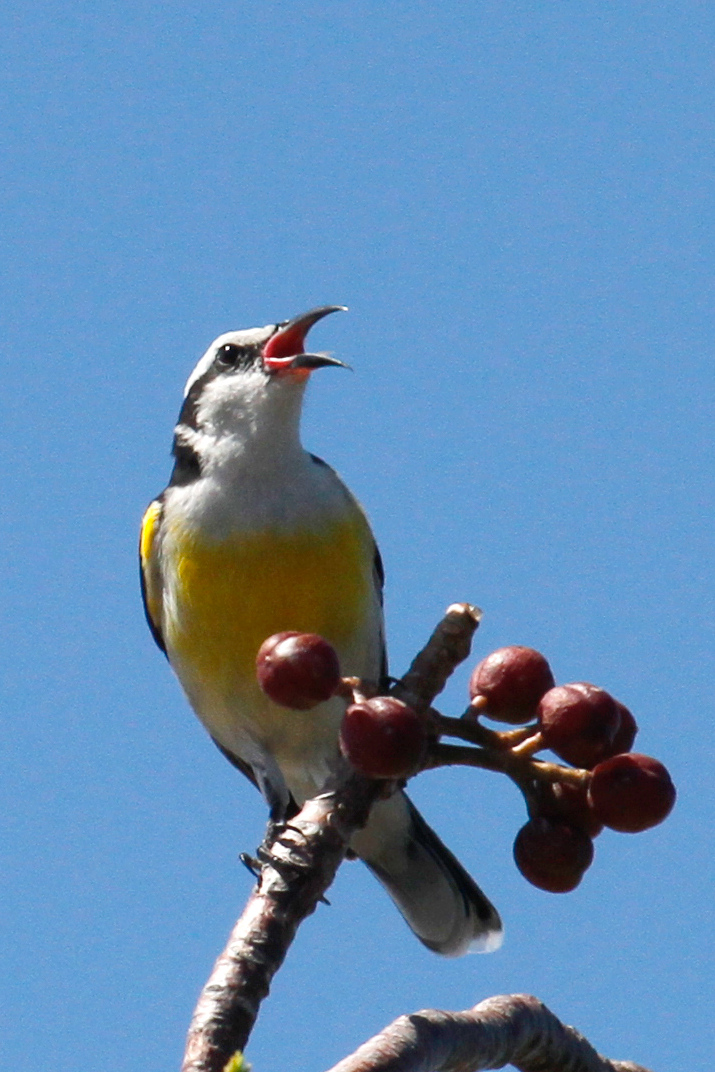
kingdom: Animalia
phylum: Chordata
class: Aves
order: Passeriformes
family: Thraupidae
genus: Coereba
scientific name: Coereba flaveola
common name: Bananaquit
